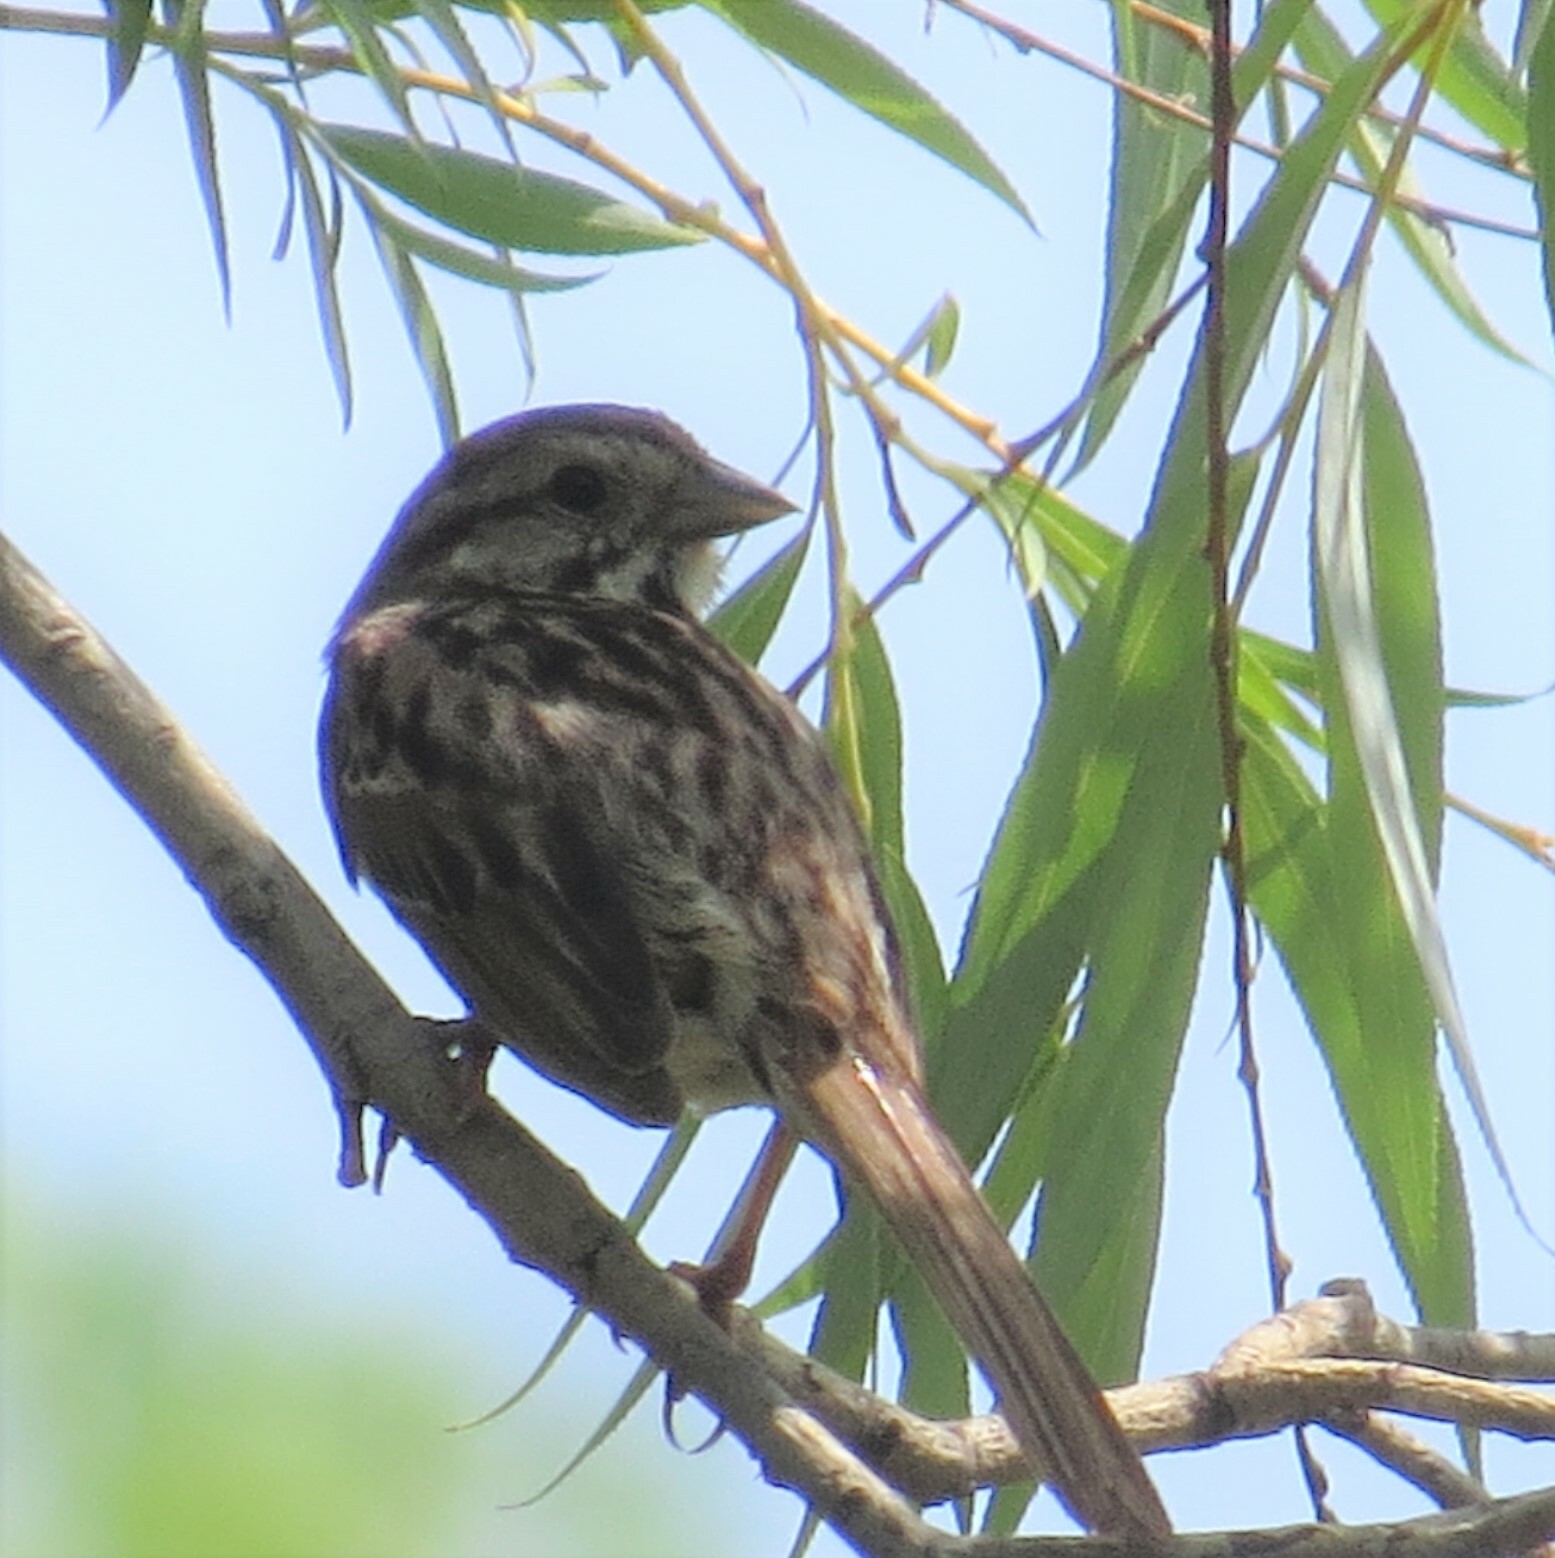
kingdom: Animalia
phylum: Chordata
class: Aves
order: Passeriformes
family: Passerellidae
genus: Melospiza
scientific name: Melospiza melodia
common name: Song sparrow
